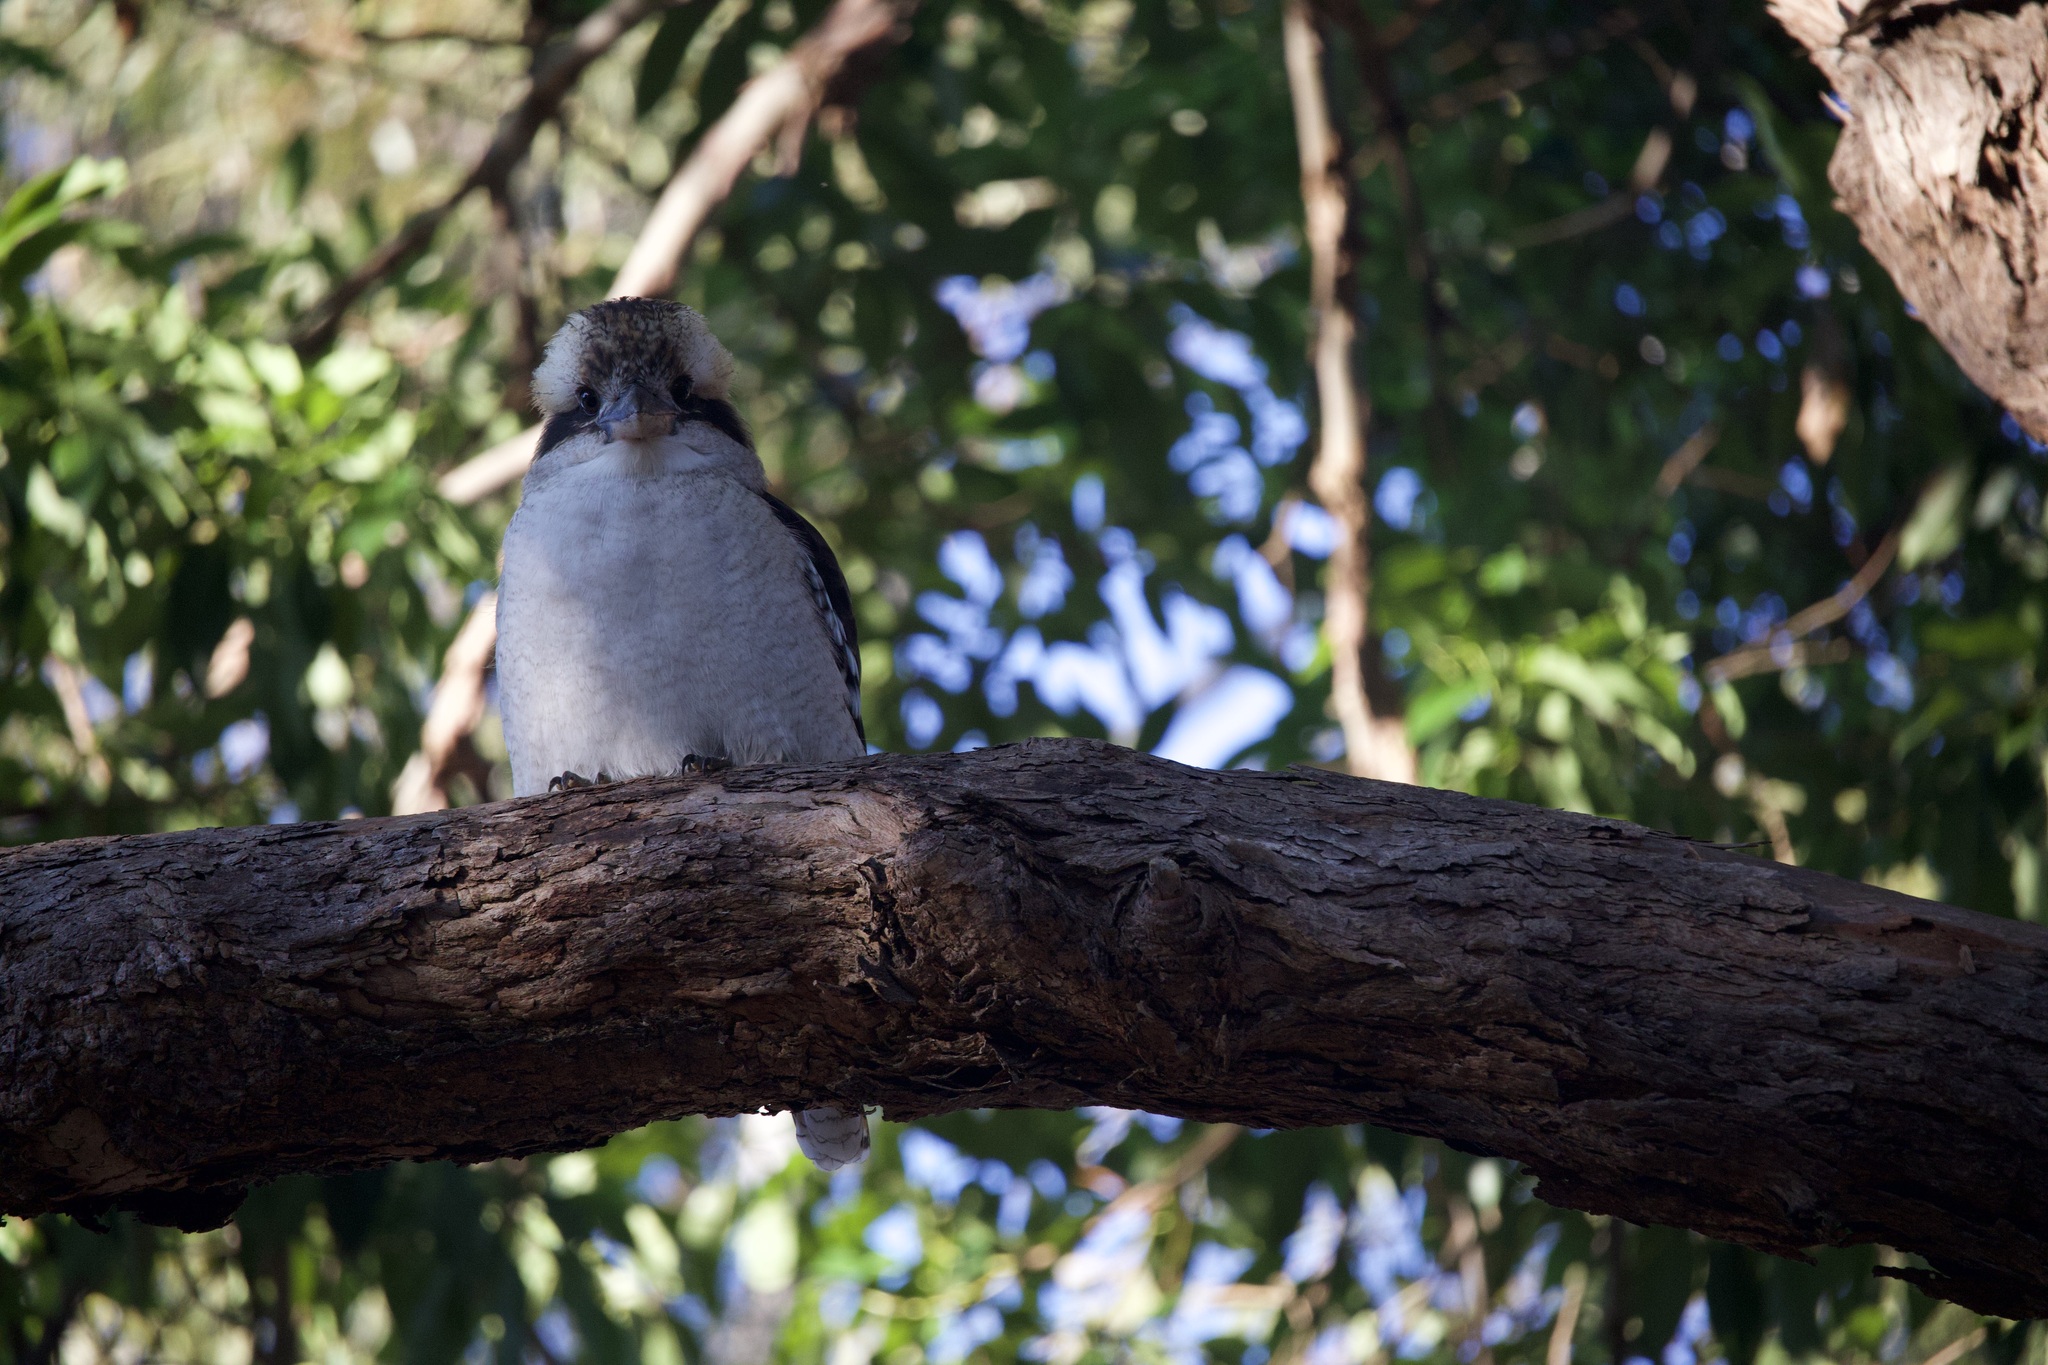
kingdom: Animalia
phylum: Chordata
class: Aves
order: Coraciiformes
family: Alcedinidae
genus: Dacelo
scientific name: Dacelo novaeguineae
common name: Laughing kookaburra
